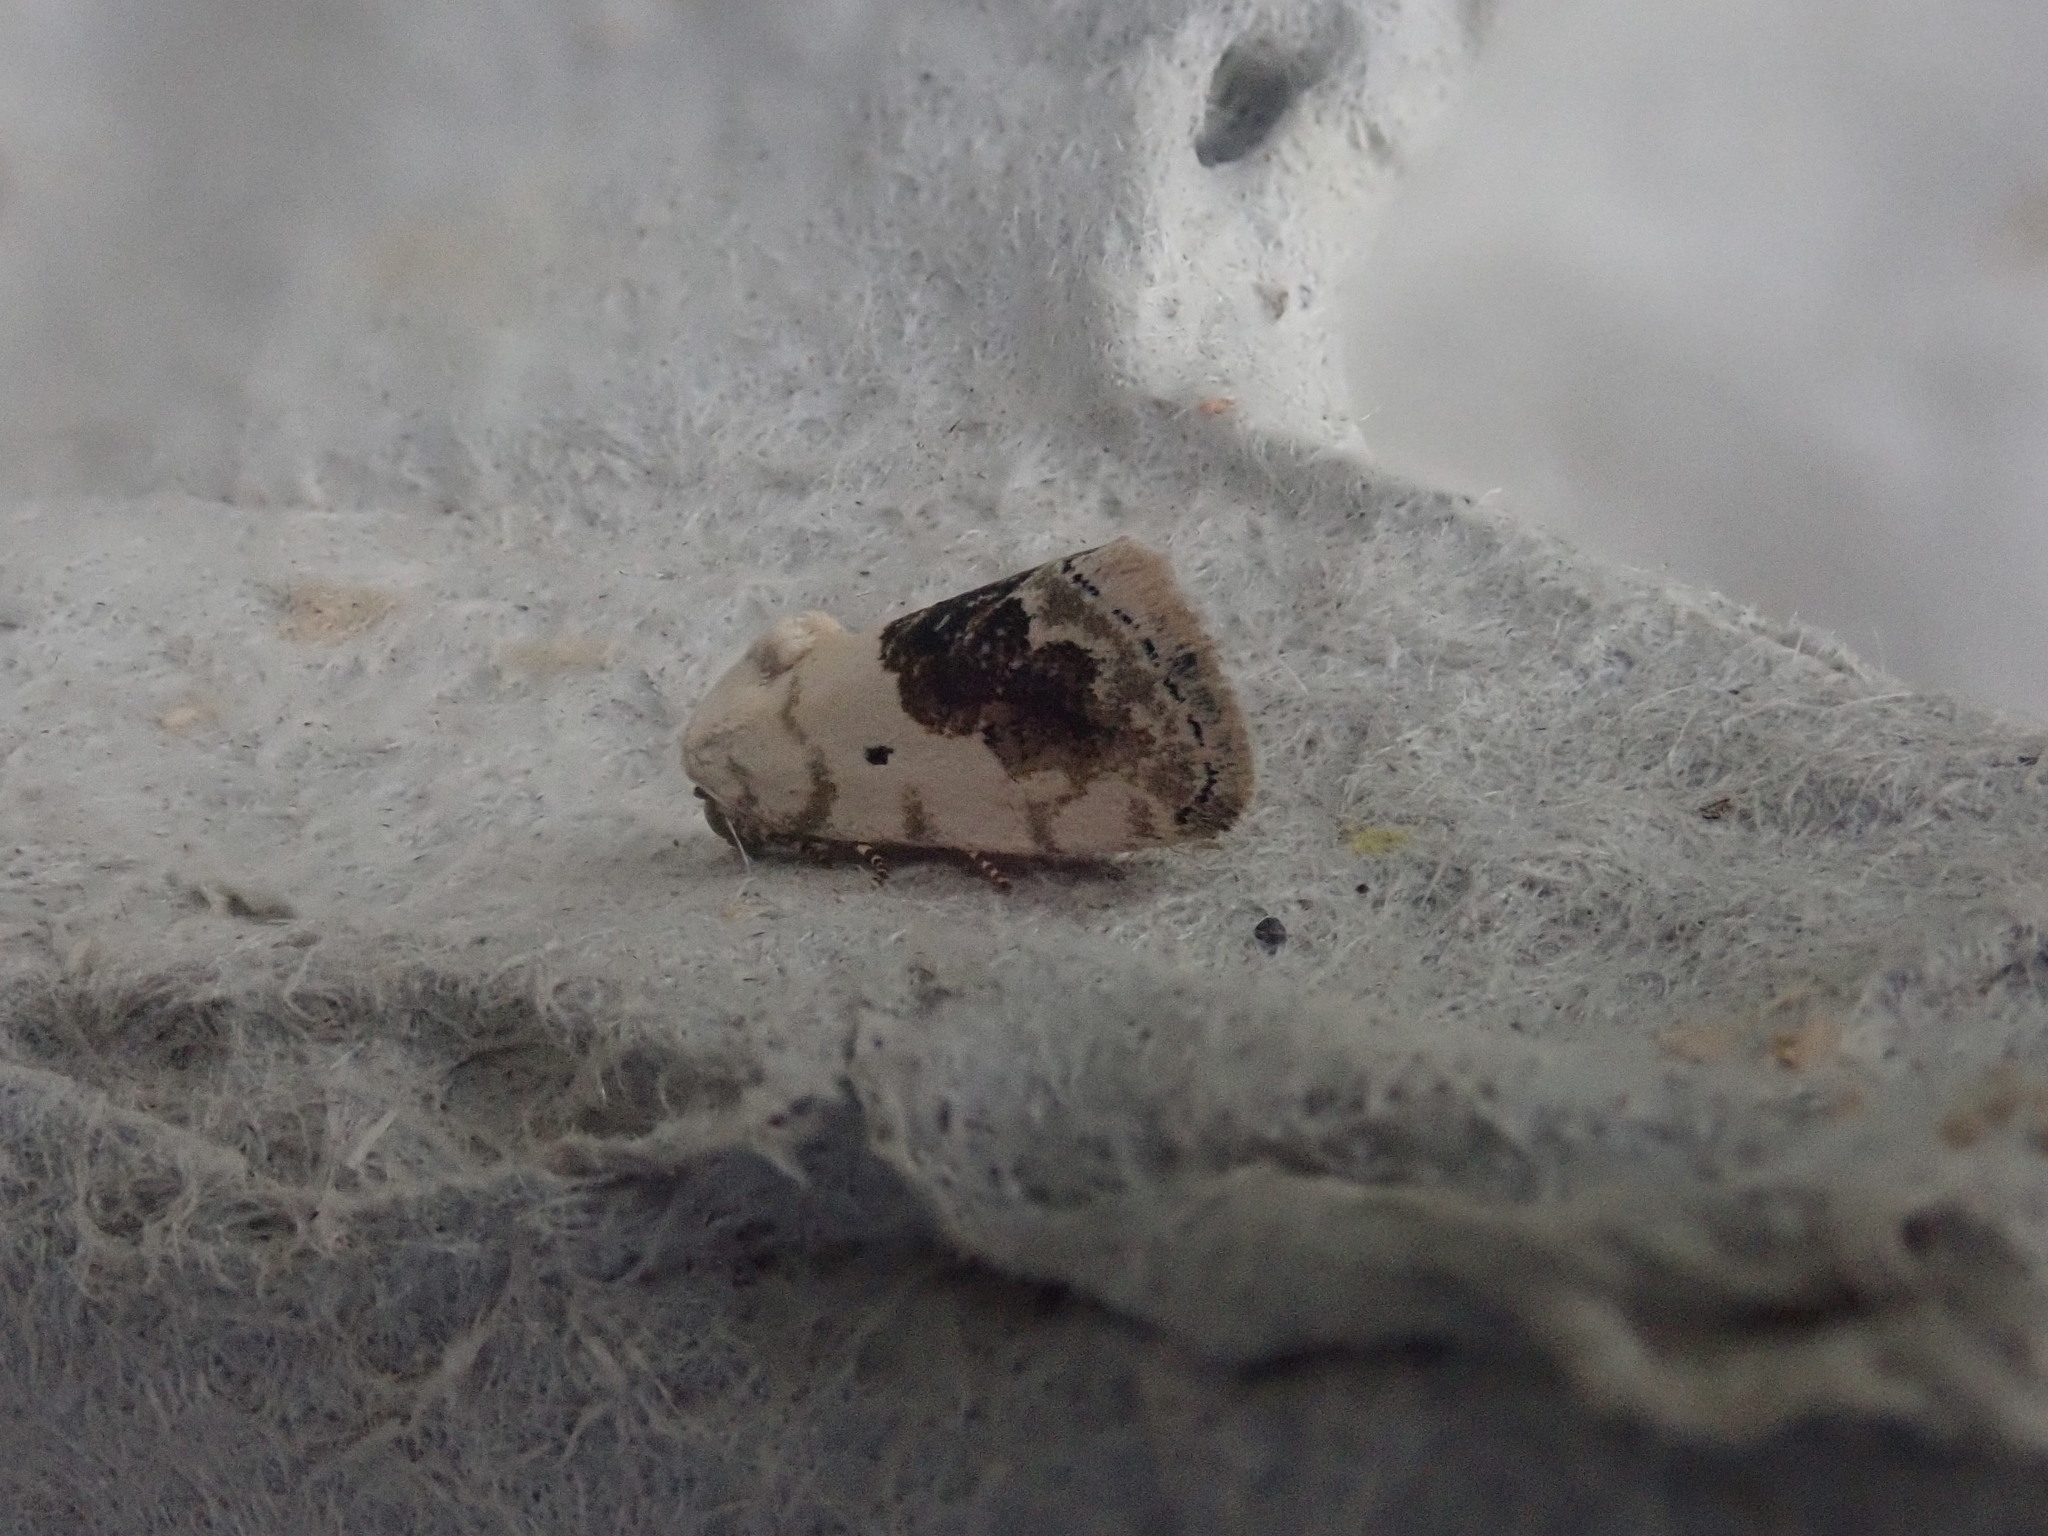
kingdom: Animalia
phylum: Arthropoda
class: Insecta
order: Lepidoptera
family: Noctuidae
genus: Acontia
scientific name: Acontia erastrioides
